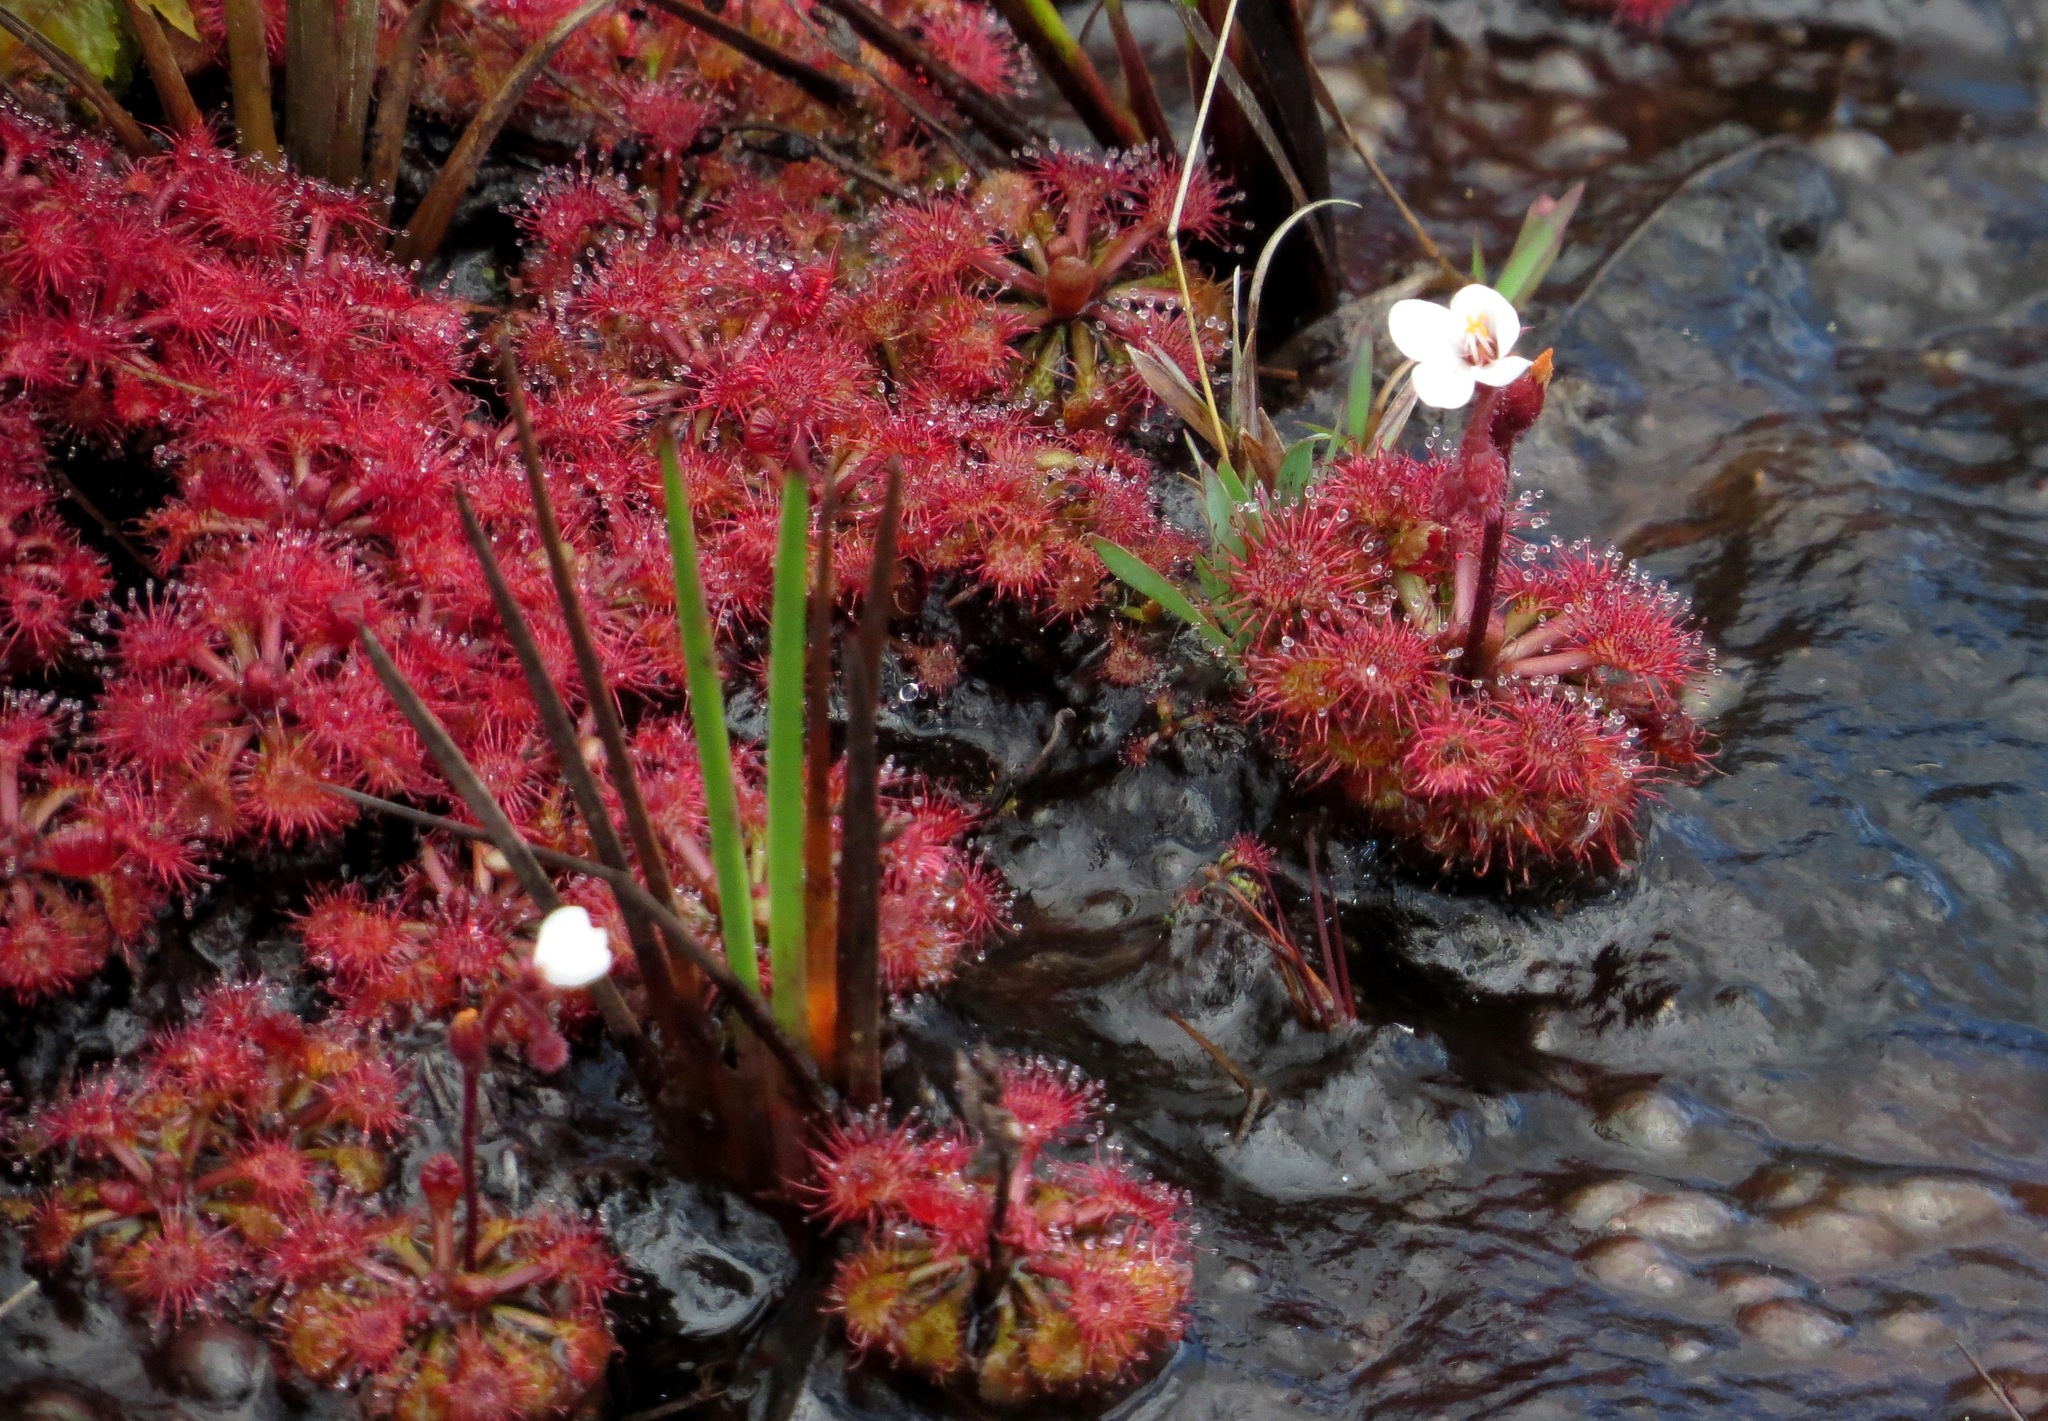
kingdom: Plantae
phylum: Tracheophyta
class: Magnoliopsida
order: Caryophyllales
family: Droseraceae
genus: Drosera
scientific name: Drosera kaieteurensis
